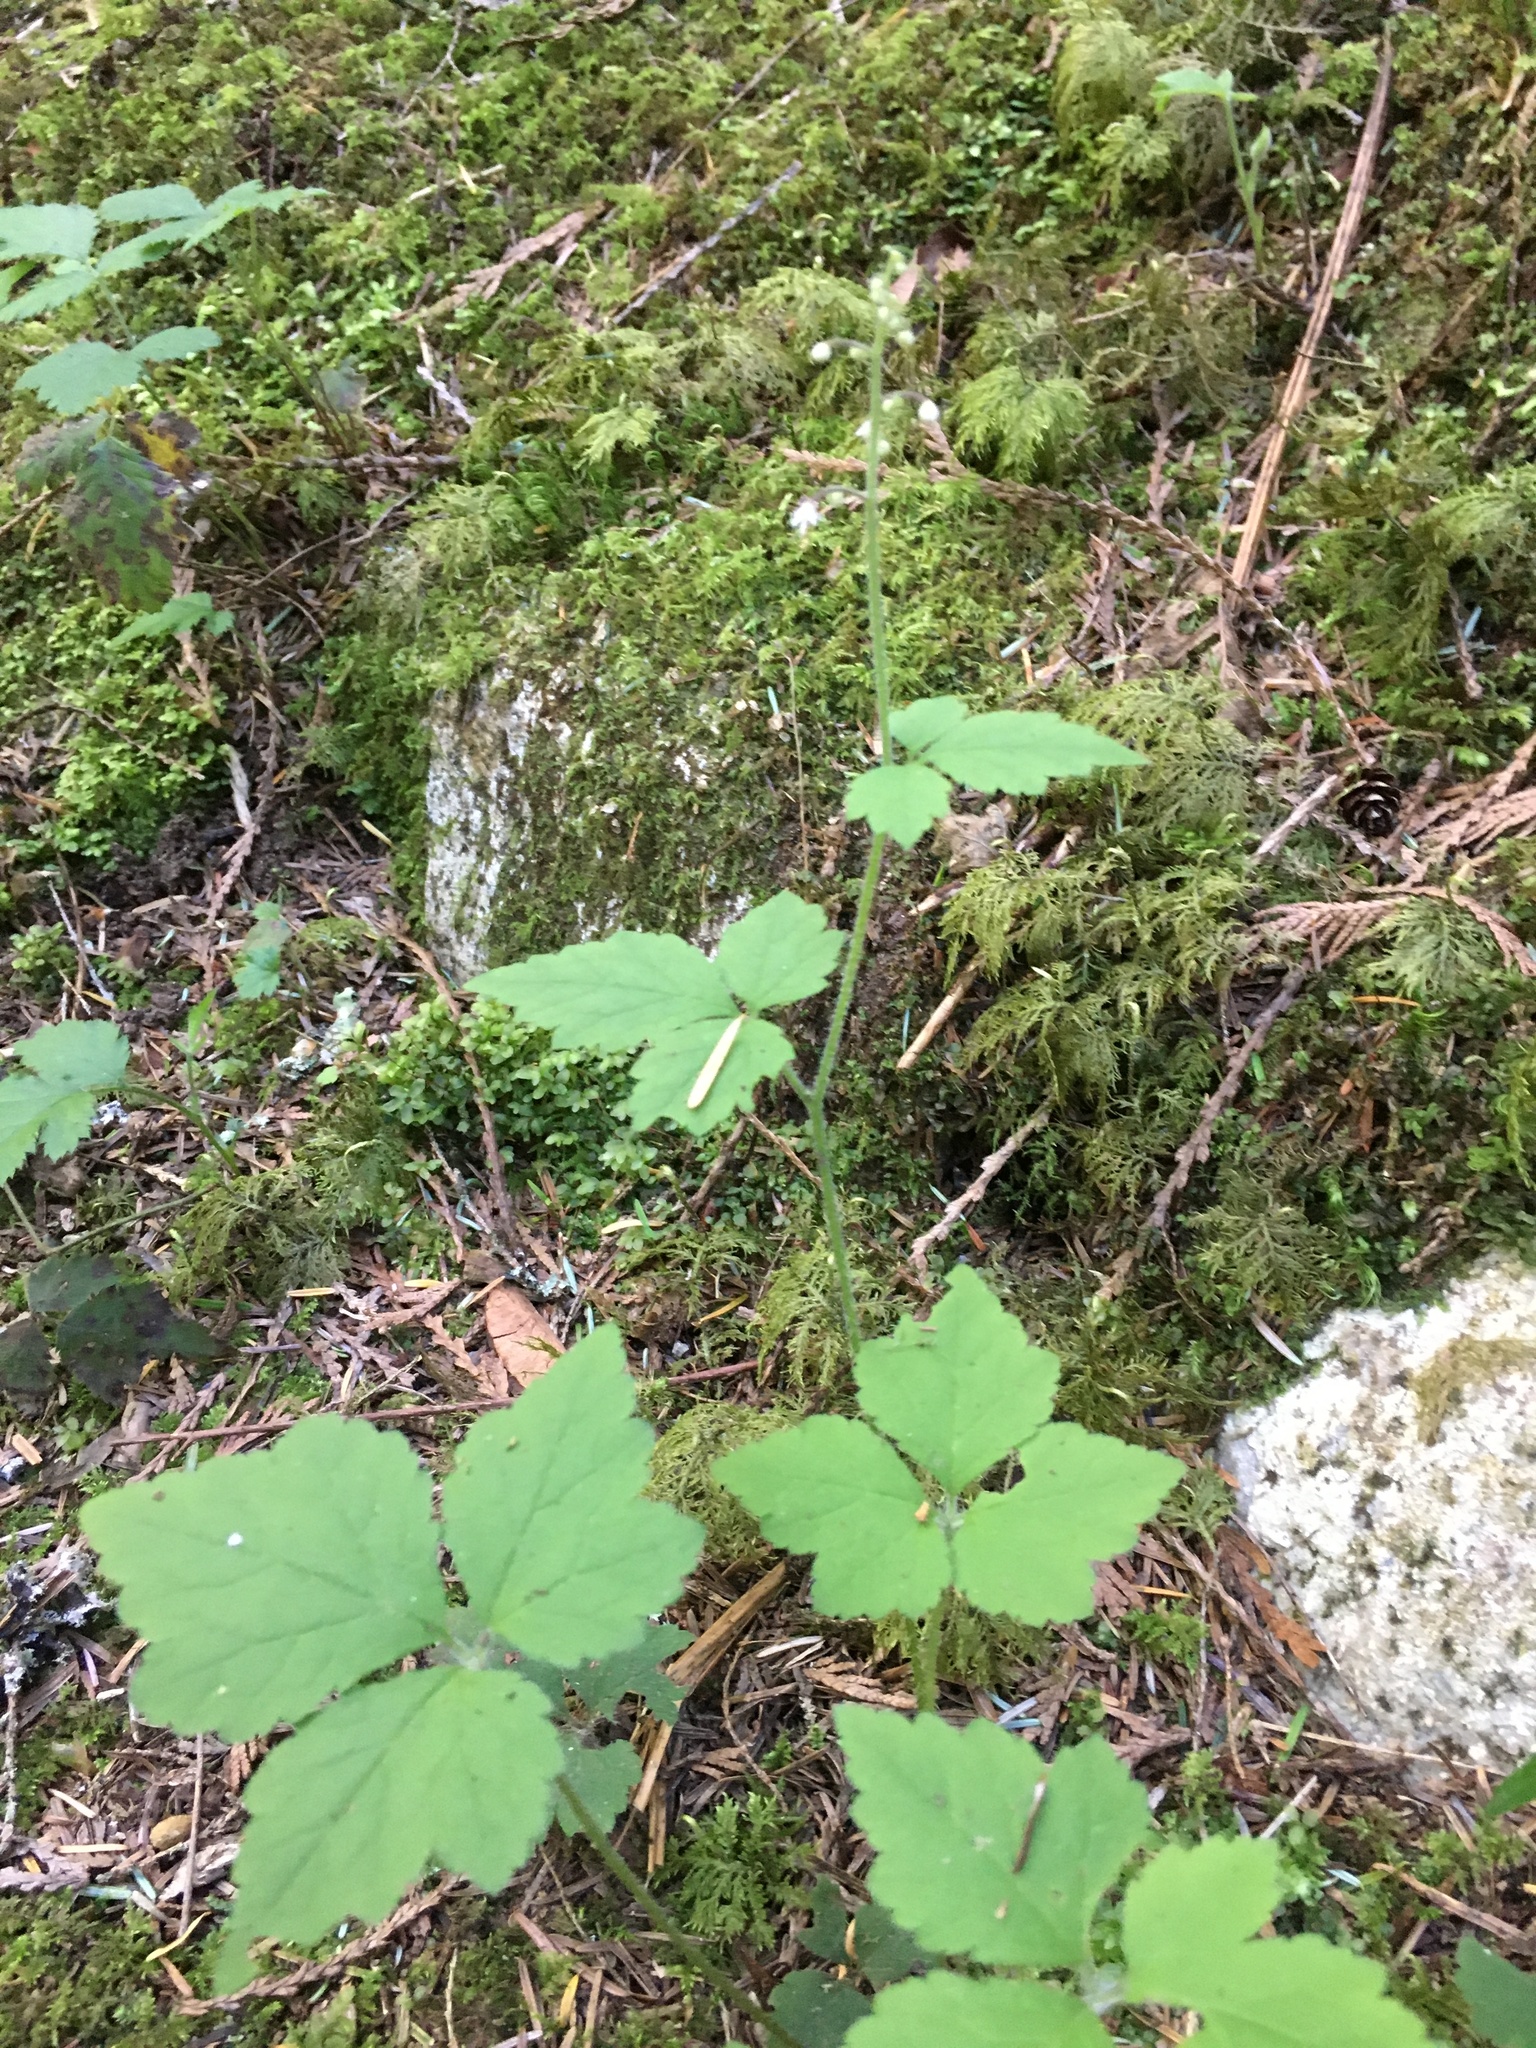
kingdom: Plantae
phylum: Tracheophyta
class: Magnoliopsida
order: Saxifragales
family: Saxifragaceae
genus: Tiarella
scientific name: Tiarella trifoliata
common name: Sugar-scoop
